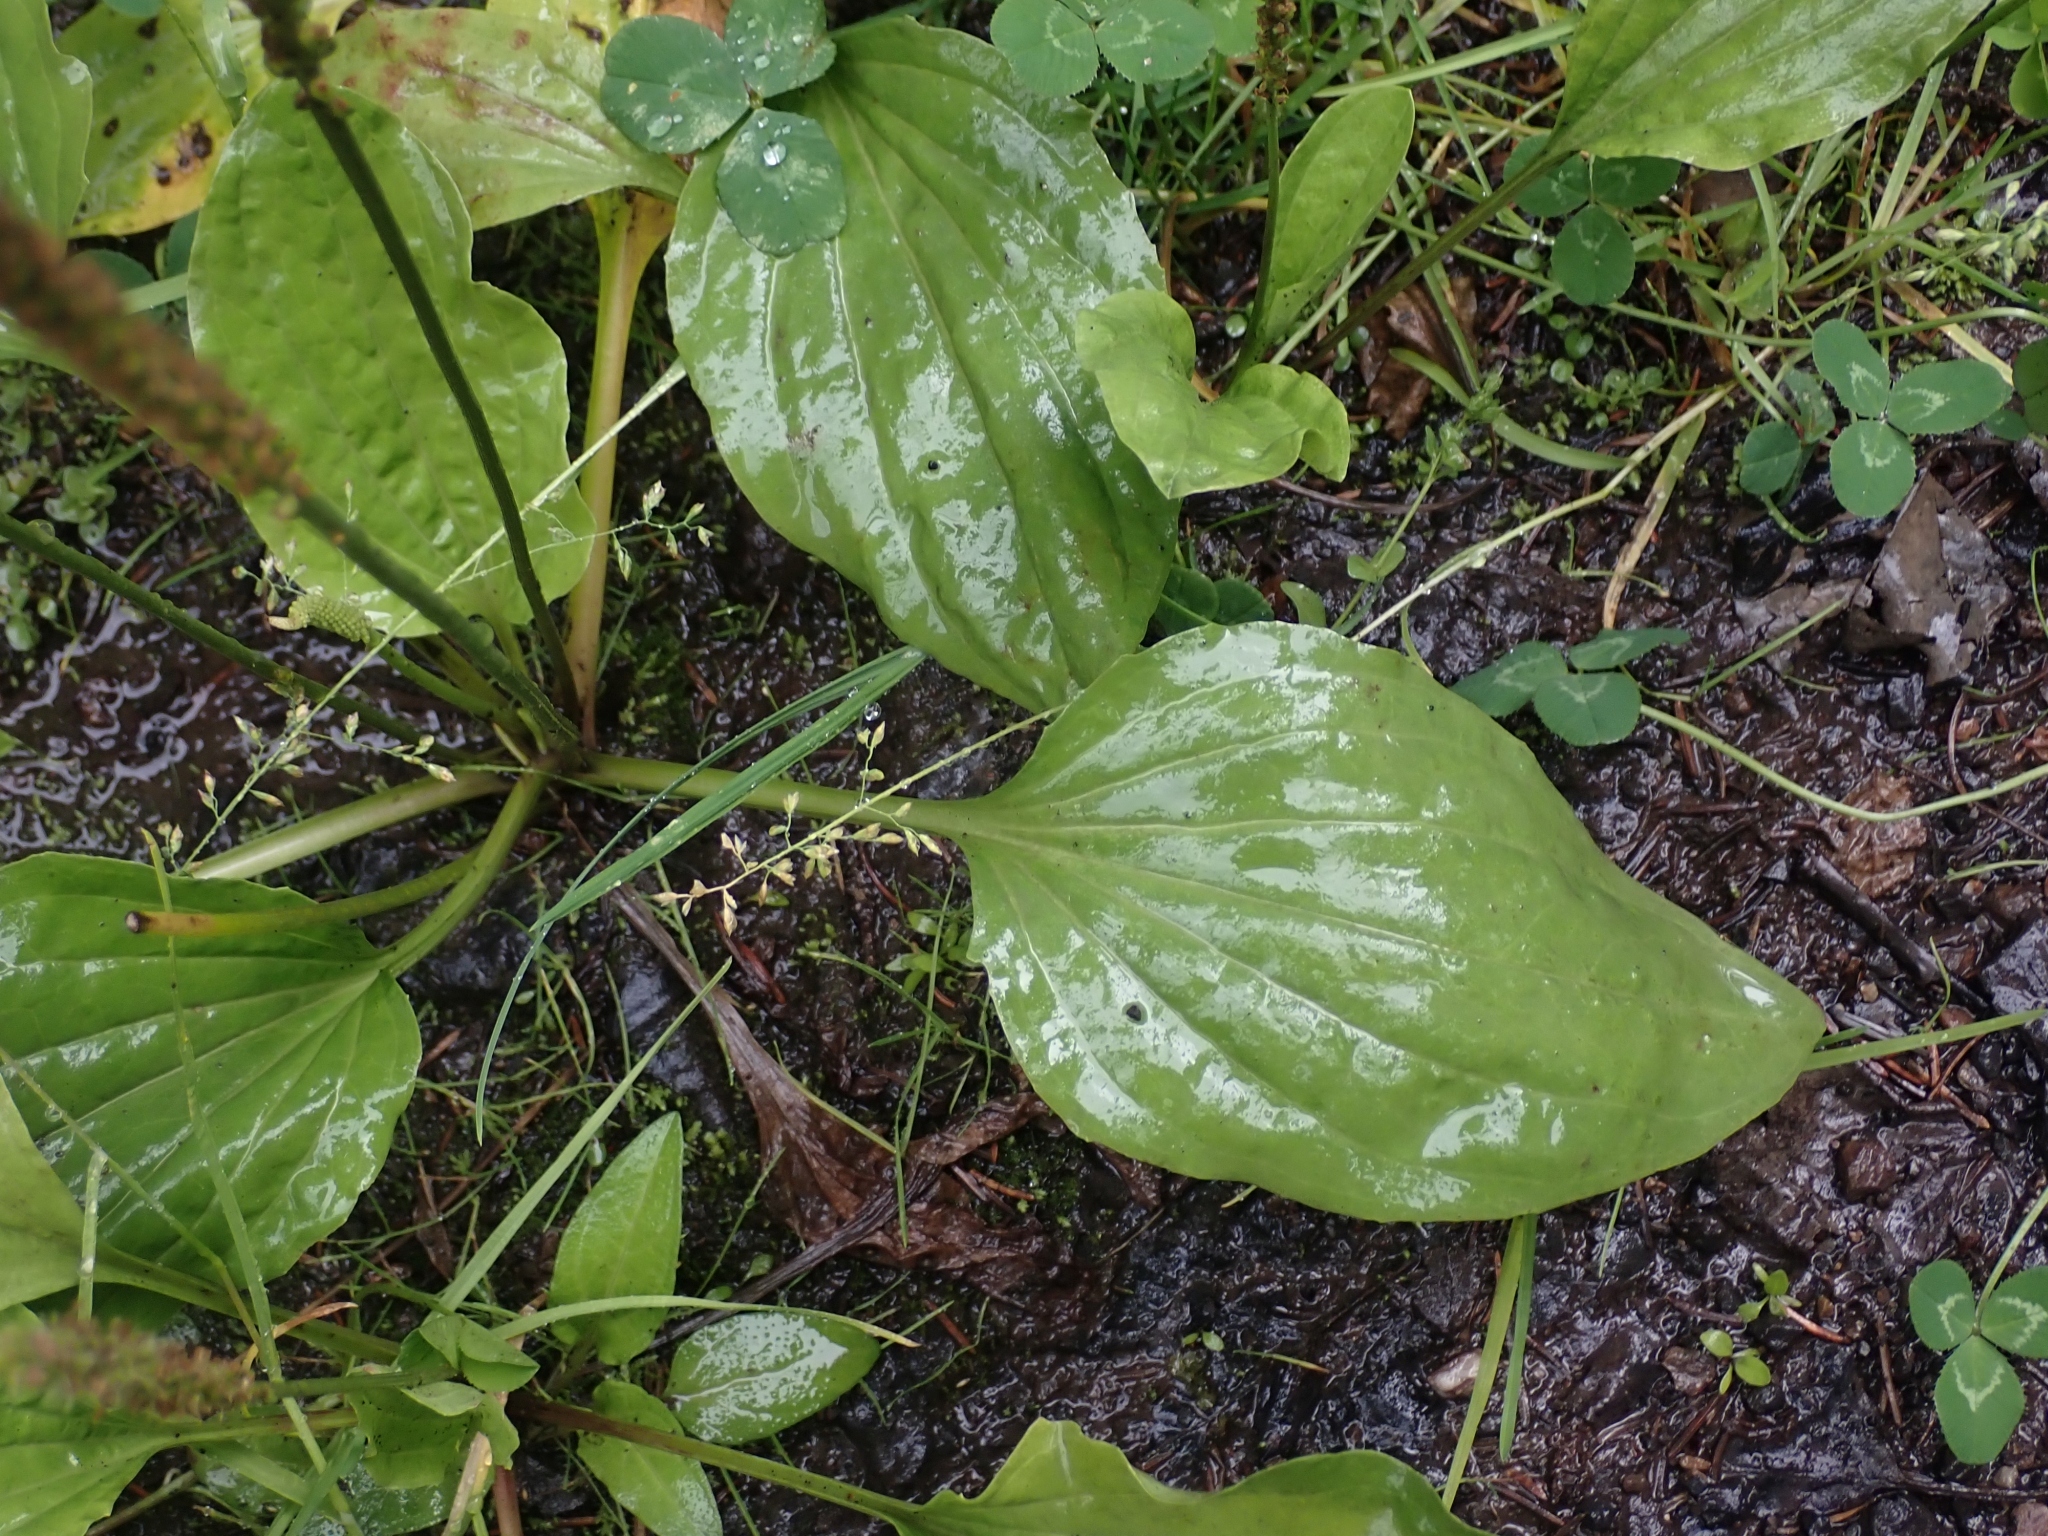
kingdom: Plantae
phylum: Tracheophyta
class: Magnoliopsida
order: Lamiales
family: Plantaginaceae
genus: Plantago
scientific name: Plantago major
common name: Common plantain
